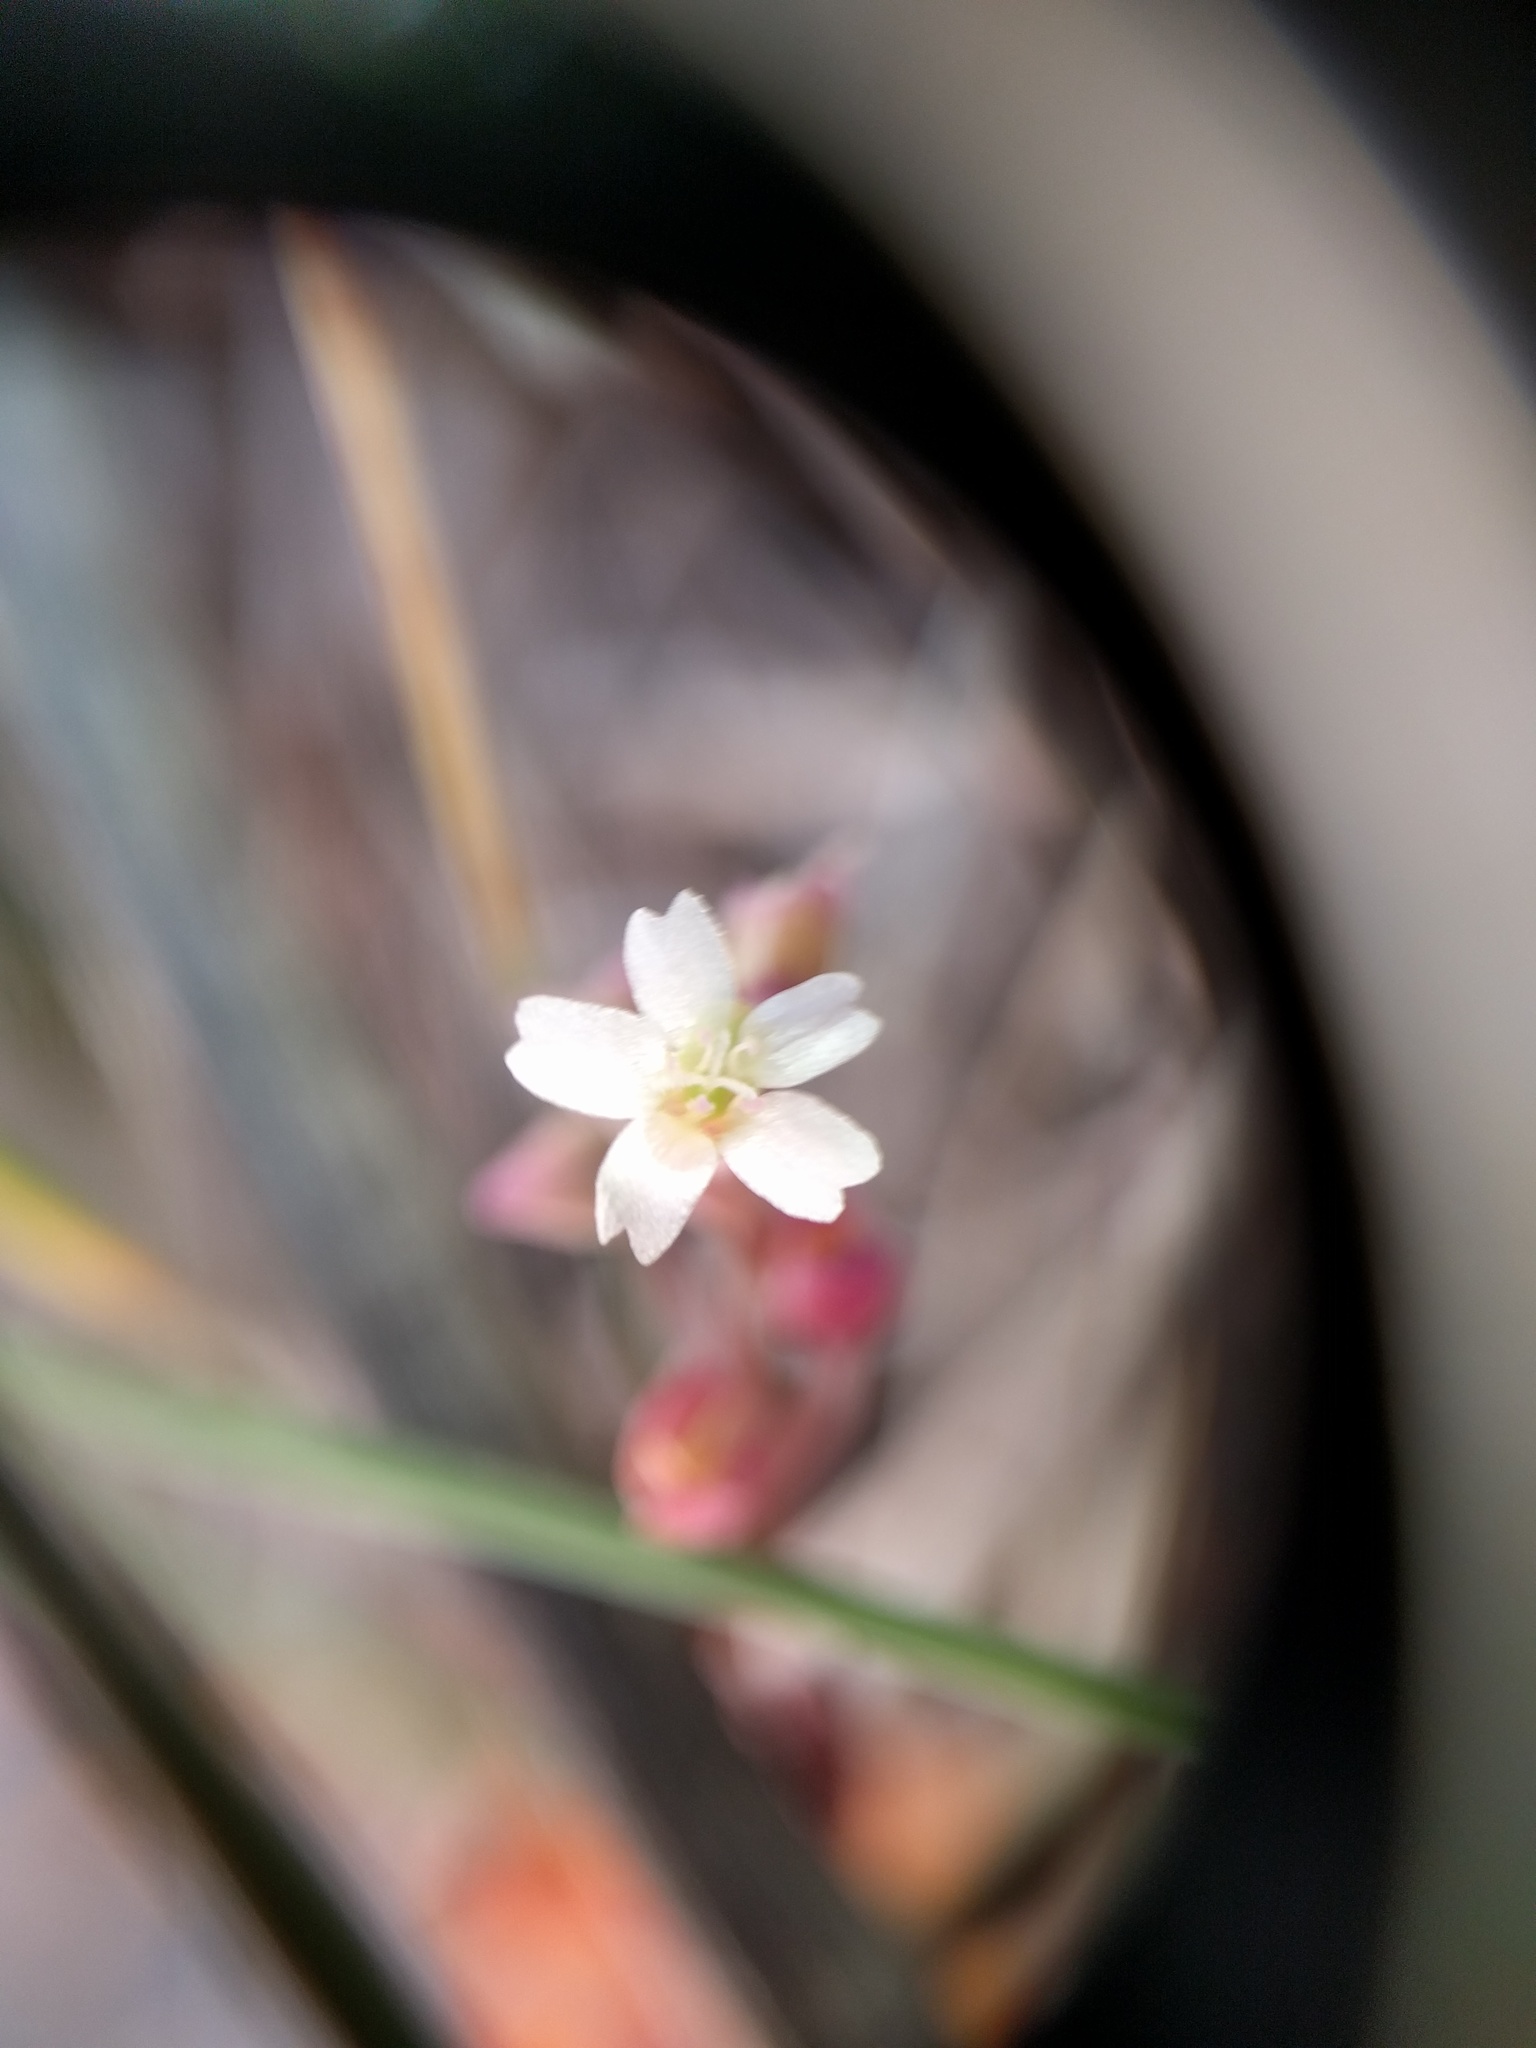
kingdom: Plantae
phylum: Tracheophyta
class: Magnoliopsida
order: Caryophyllales
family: Montiaceae
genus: Claytonia
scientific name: Claytonia perfoliata
